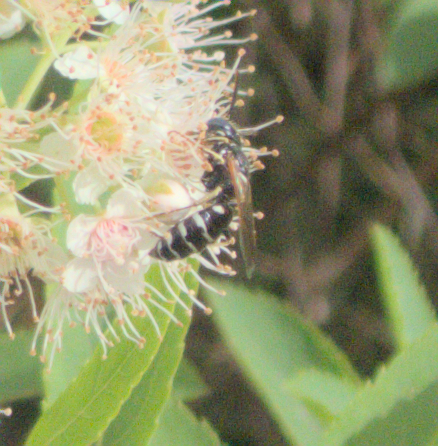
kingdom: Animalia
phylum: Arthropoda
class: Insecta
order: Hymenoptera
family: Crabronidae
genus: Philanthus
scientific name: Philanthus politus
